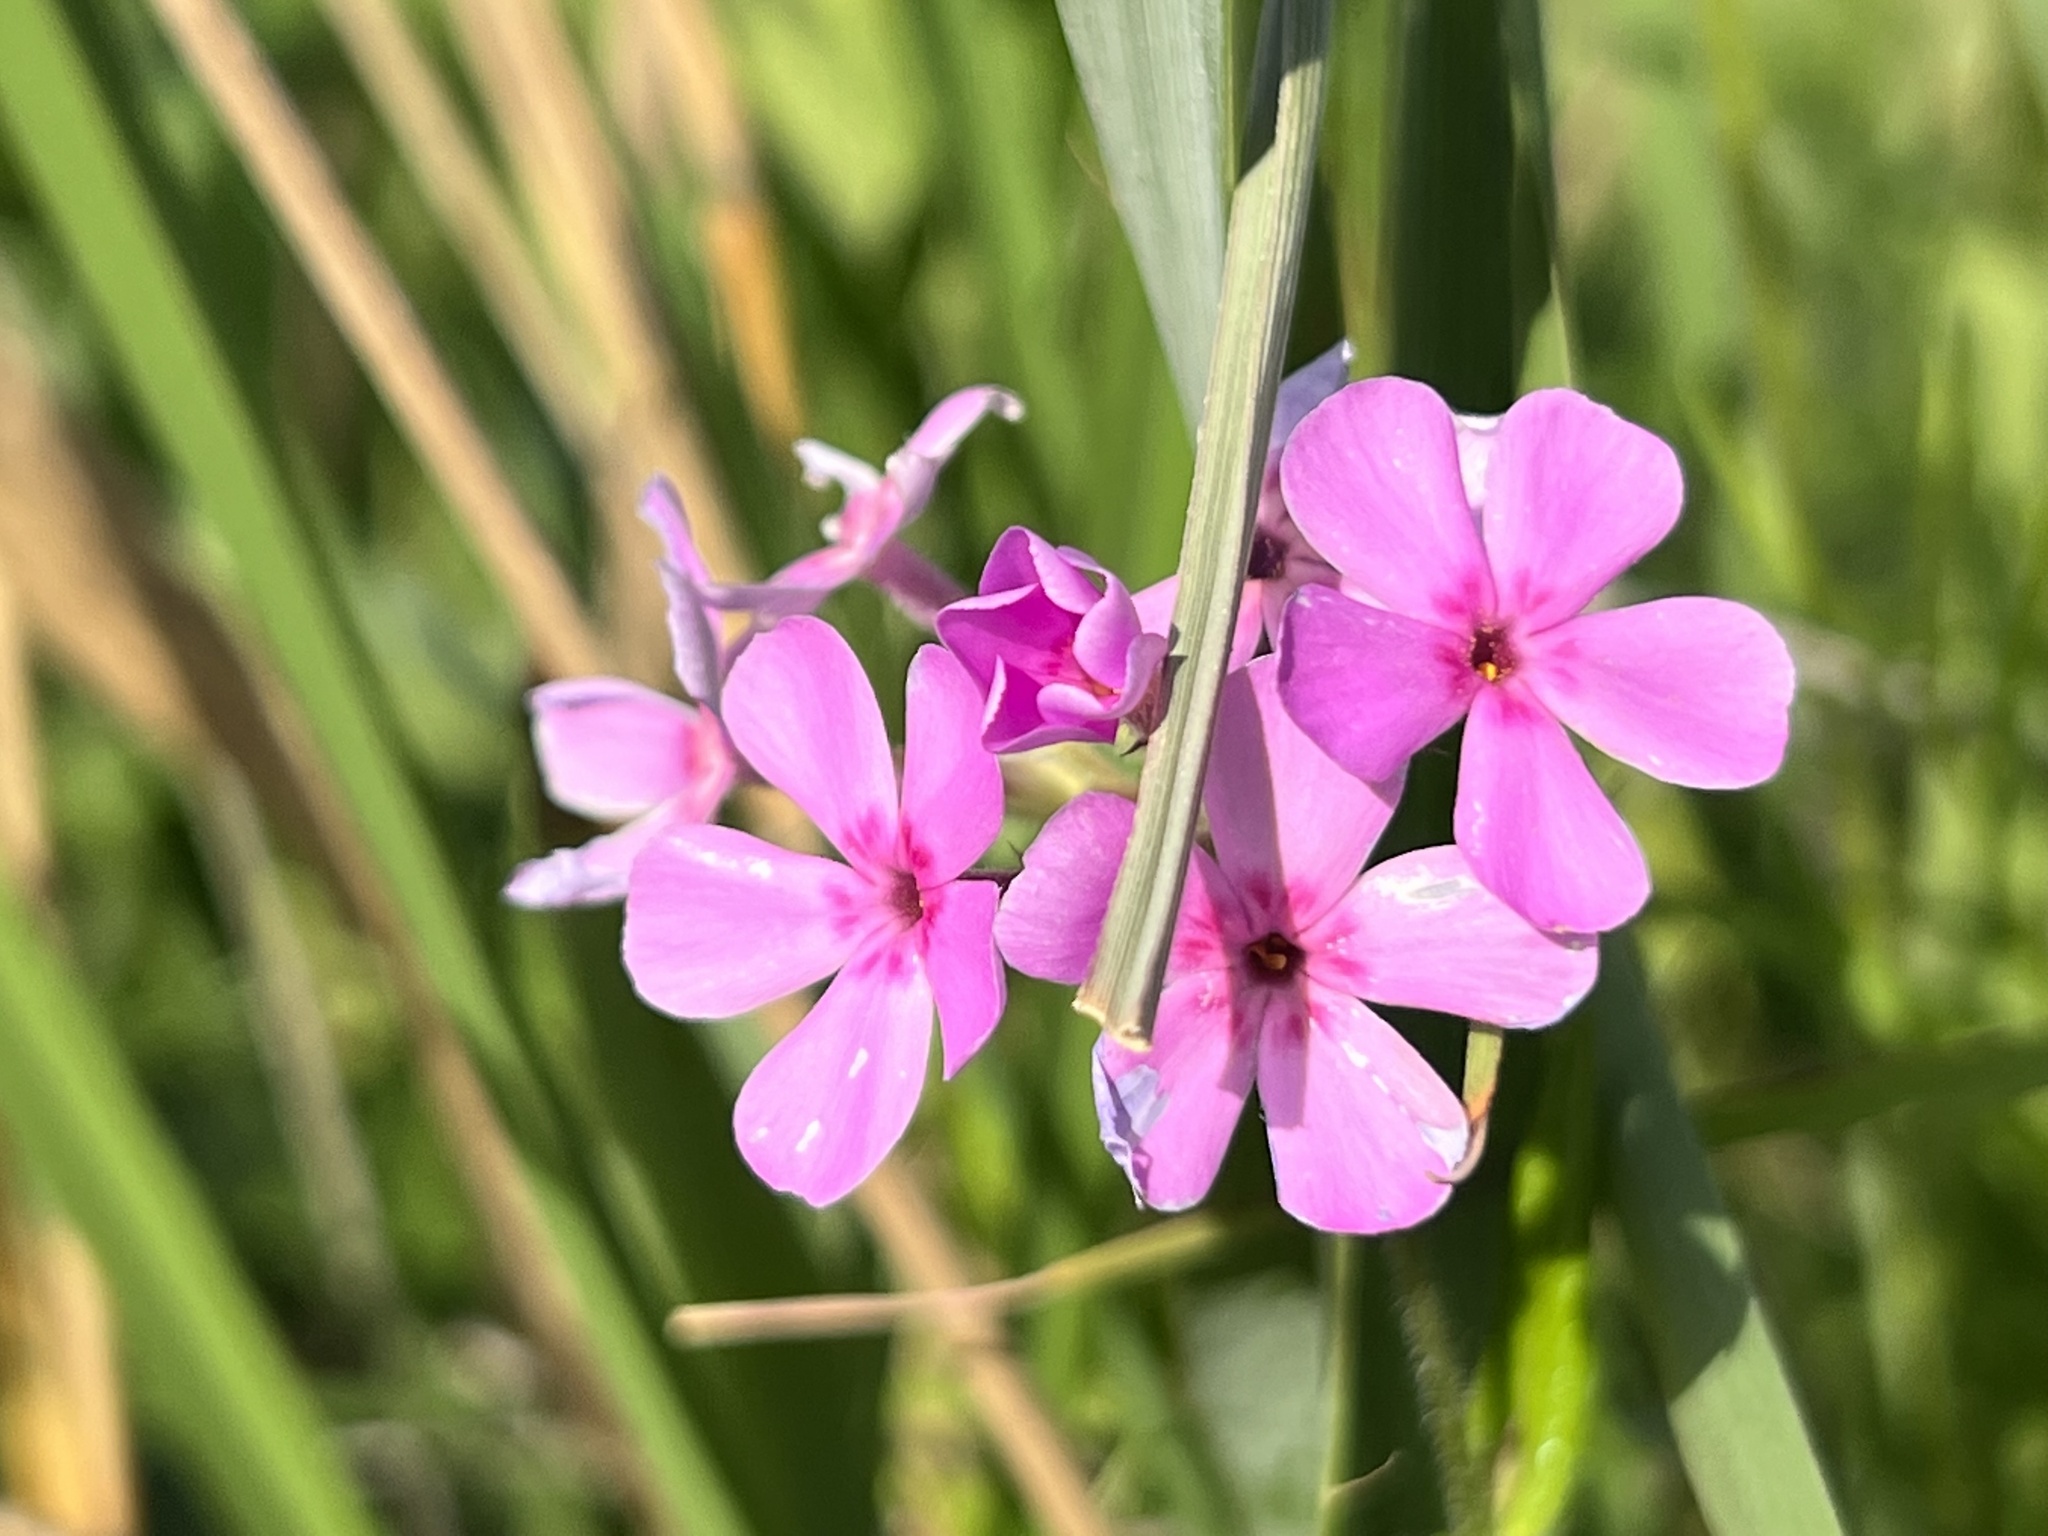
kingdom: Plantae
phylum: Tracheophyta
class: Magnoliopsida
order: Ericales
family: Polemoniaceae
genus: Phlox
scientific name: Phlox pilosa
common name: Prairie phlox
